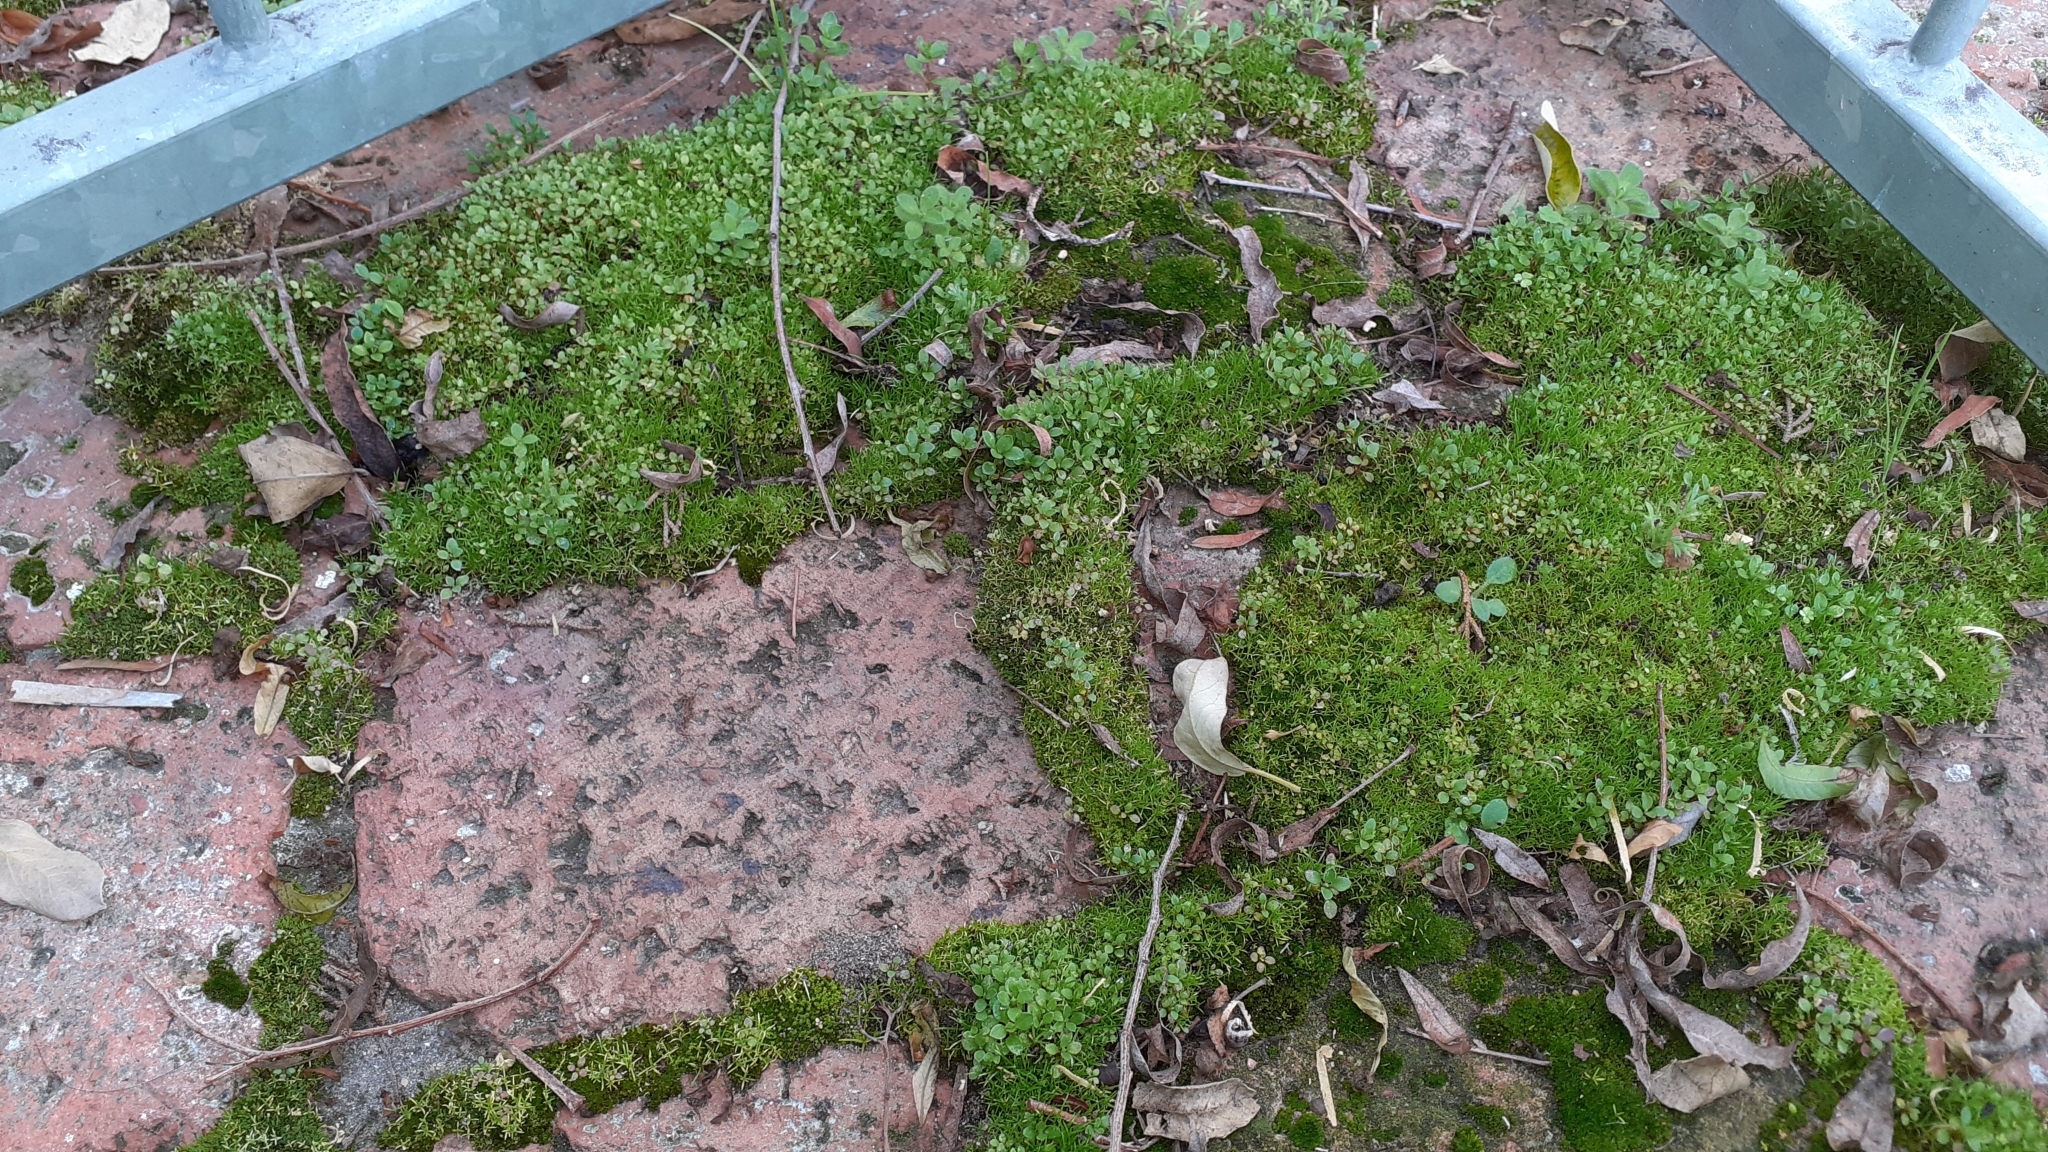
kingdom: Plantae
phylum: Bryophyta
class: Bryopsida
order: Pottiales
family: Pottiaceae
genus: Tortula
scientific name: Tortula muralis
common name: Wall screw-moss
